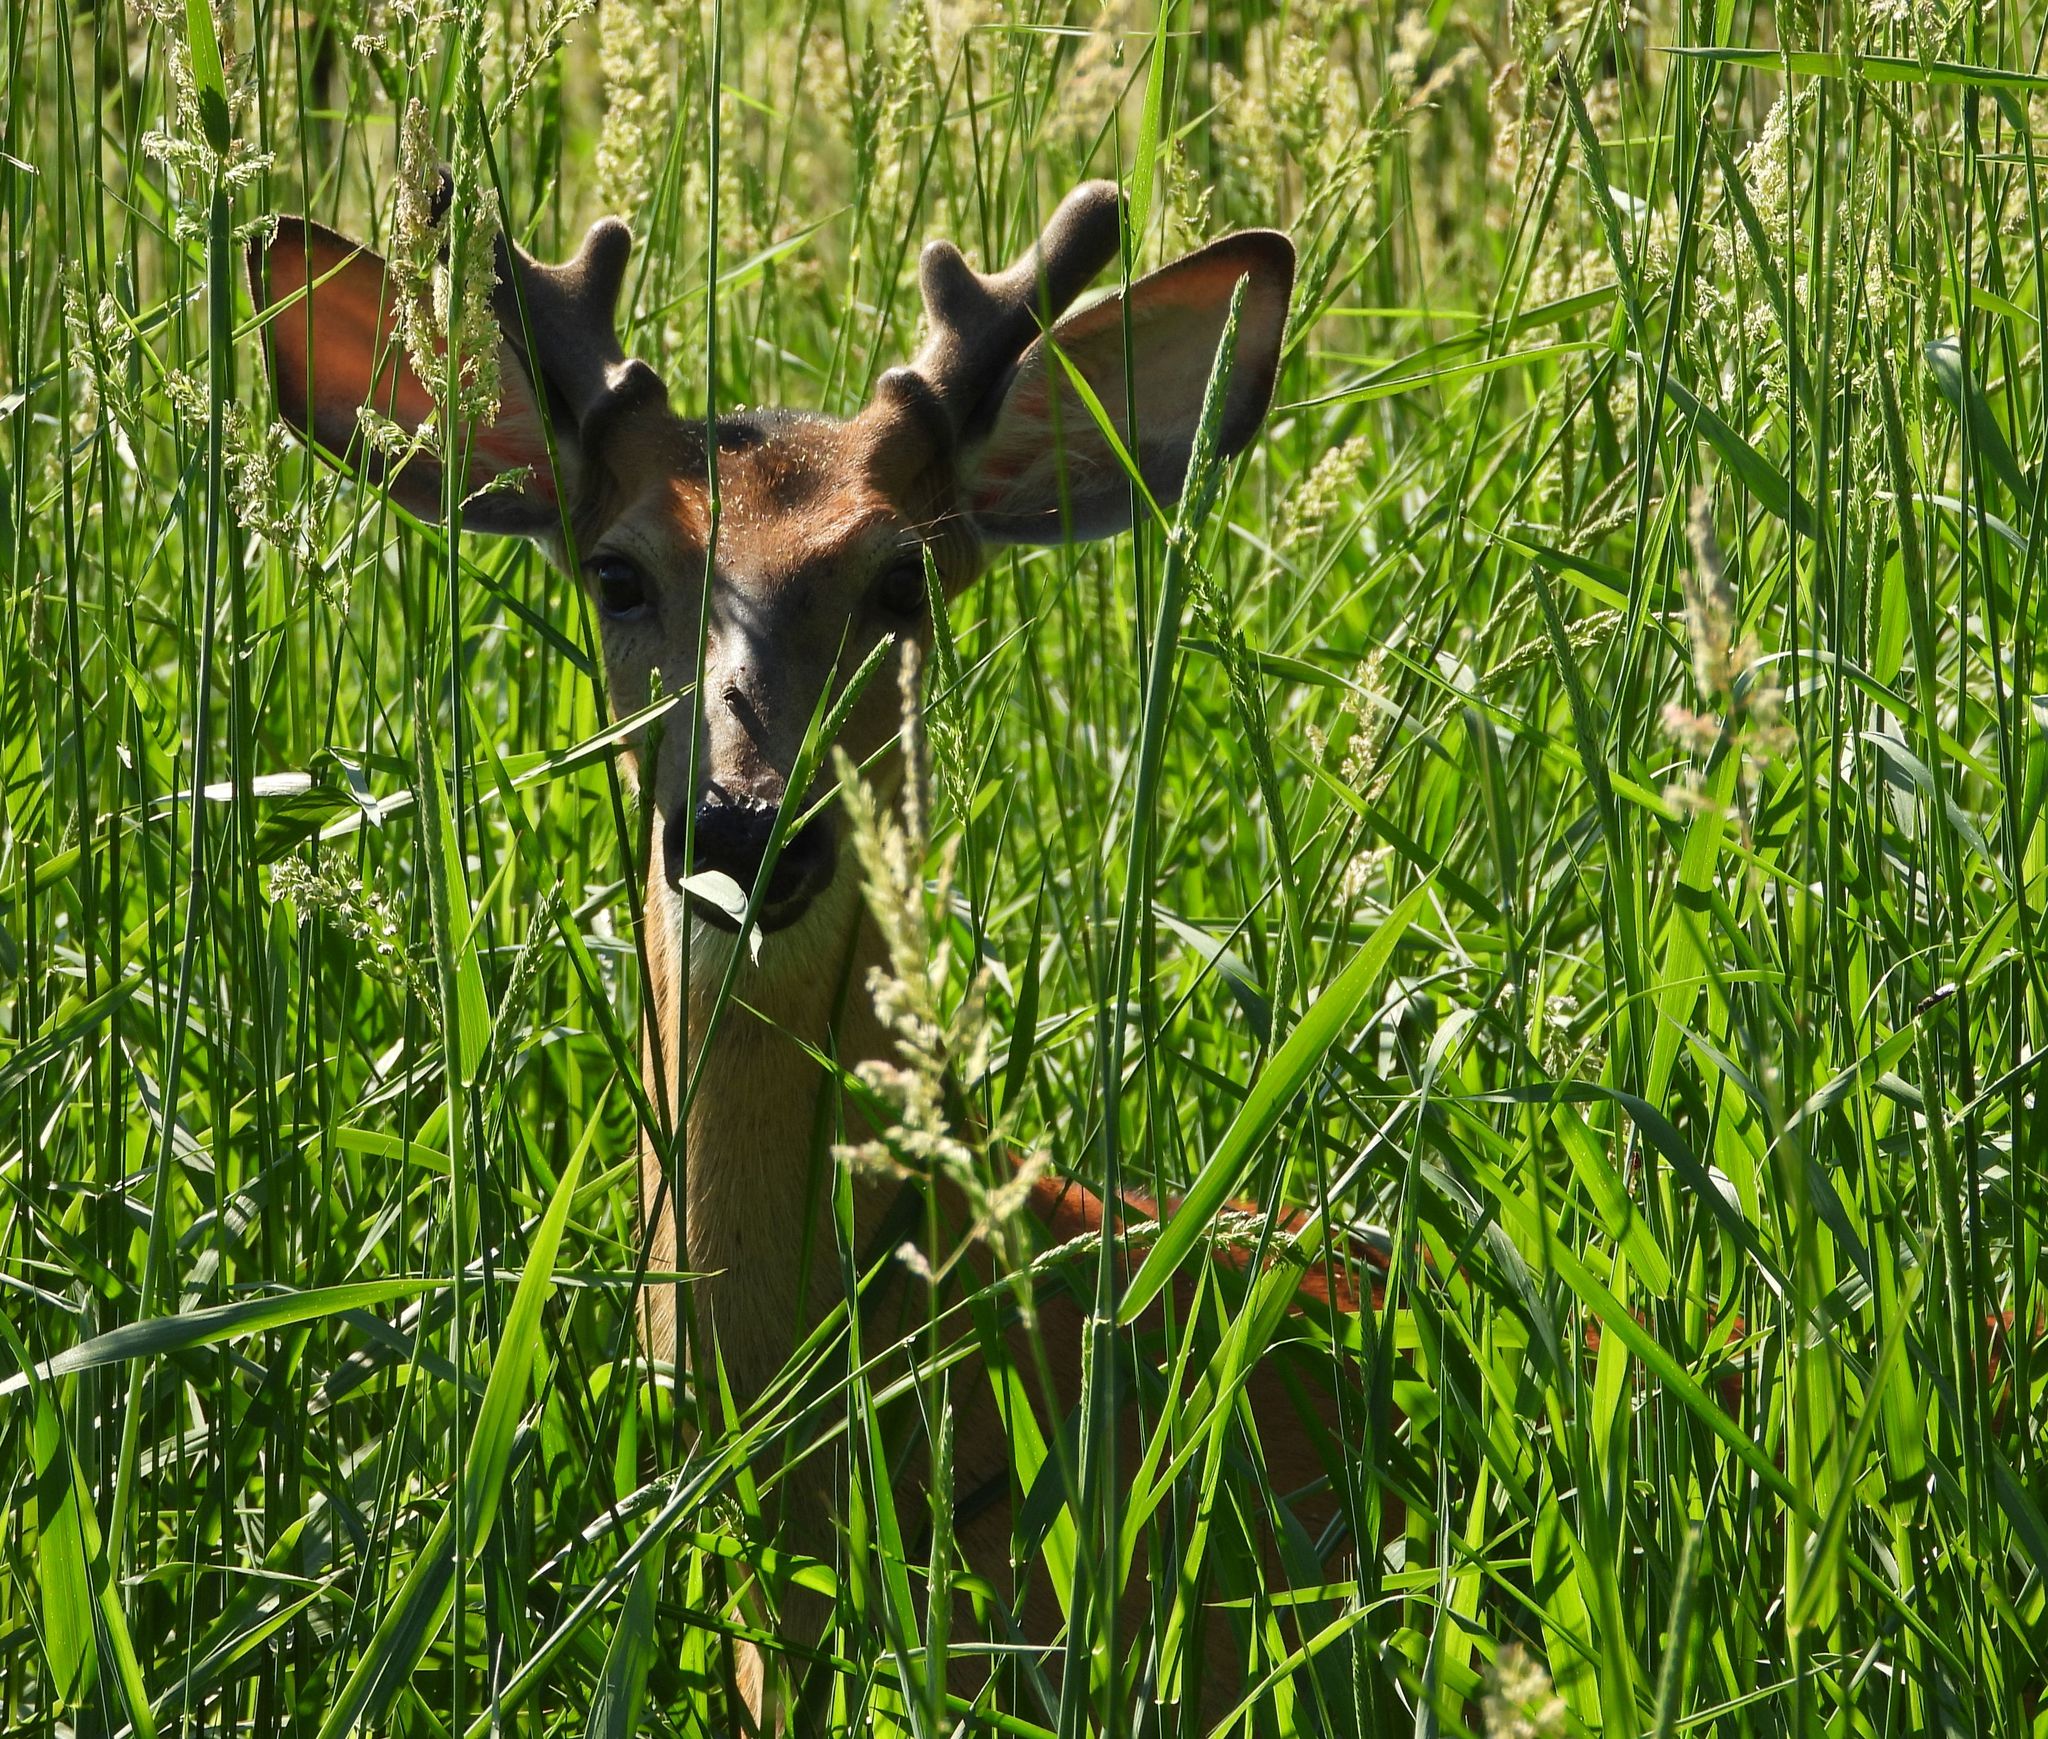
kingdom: Animalia
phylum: Chordata
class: Mammalia
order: Artiodactyla
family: Cervidae
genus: Odocoileus
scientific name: Odocoileus virginianus
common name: White-tailed deer
